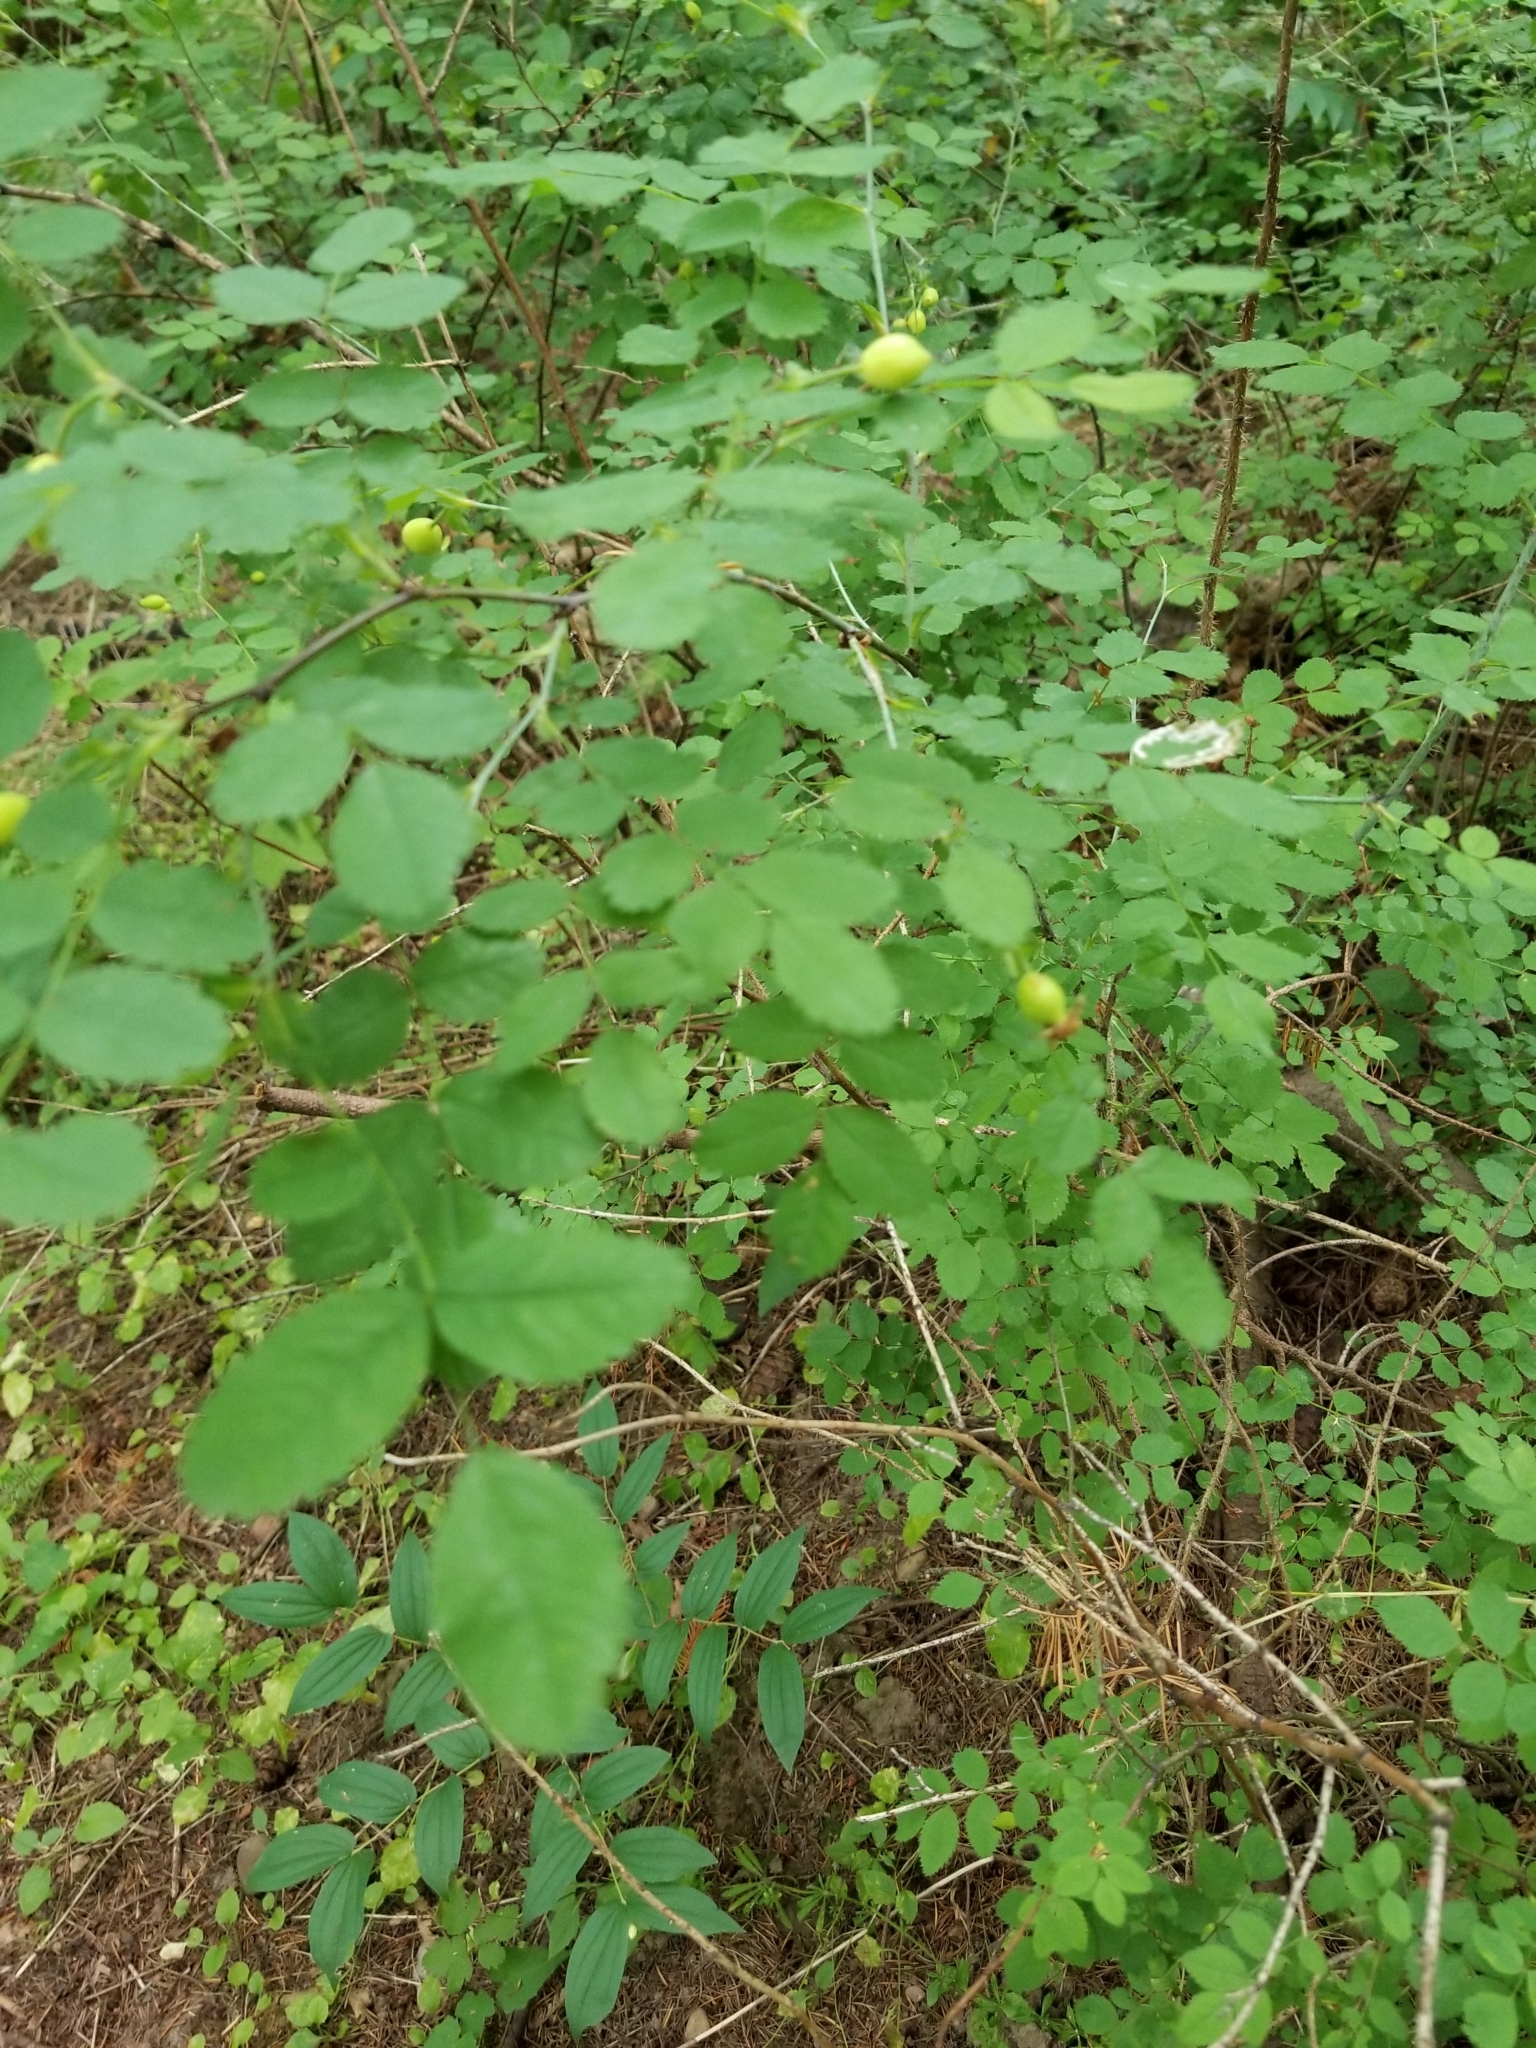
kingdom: Plantae
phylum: Tracheophyta
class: Magnoliopsida
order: Rosales
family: Rosaceae
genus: Rosa
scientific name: Rosa gymnocarpa
